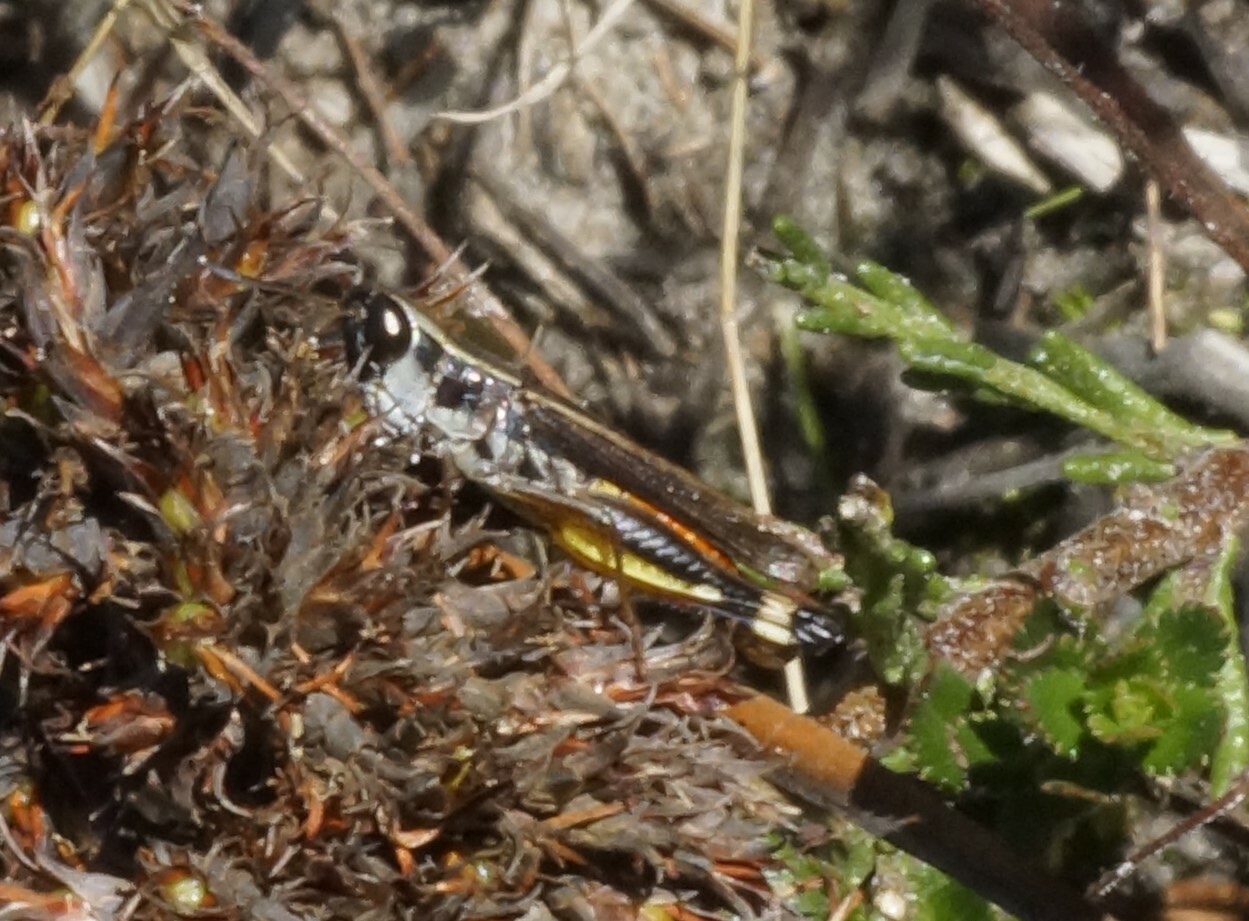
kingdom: Animalia
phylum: Arthropoda
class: Insecta
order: Orthoptera
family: Acrididae
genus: Macrotona
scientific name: Macrotona australis
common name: Common macrotona
